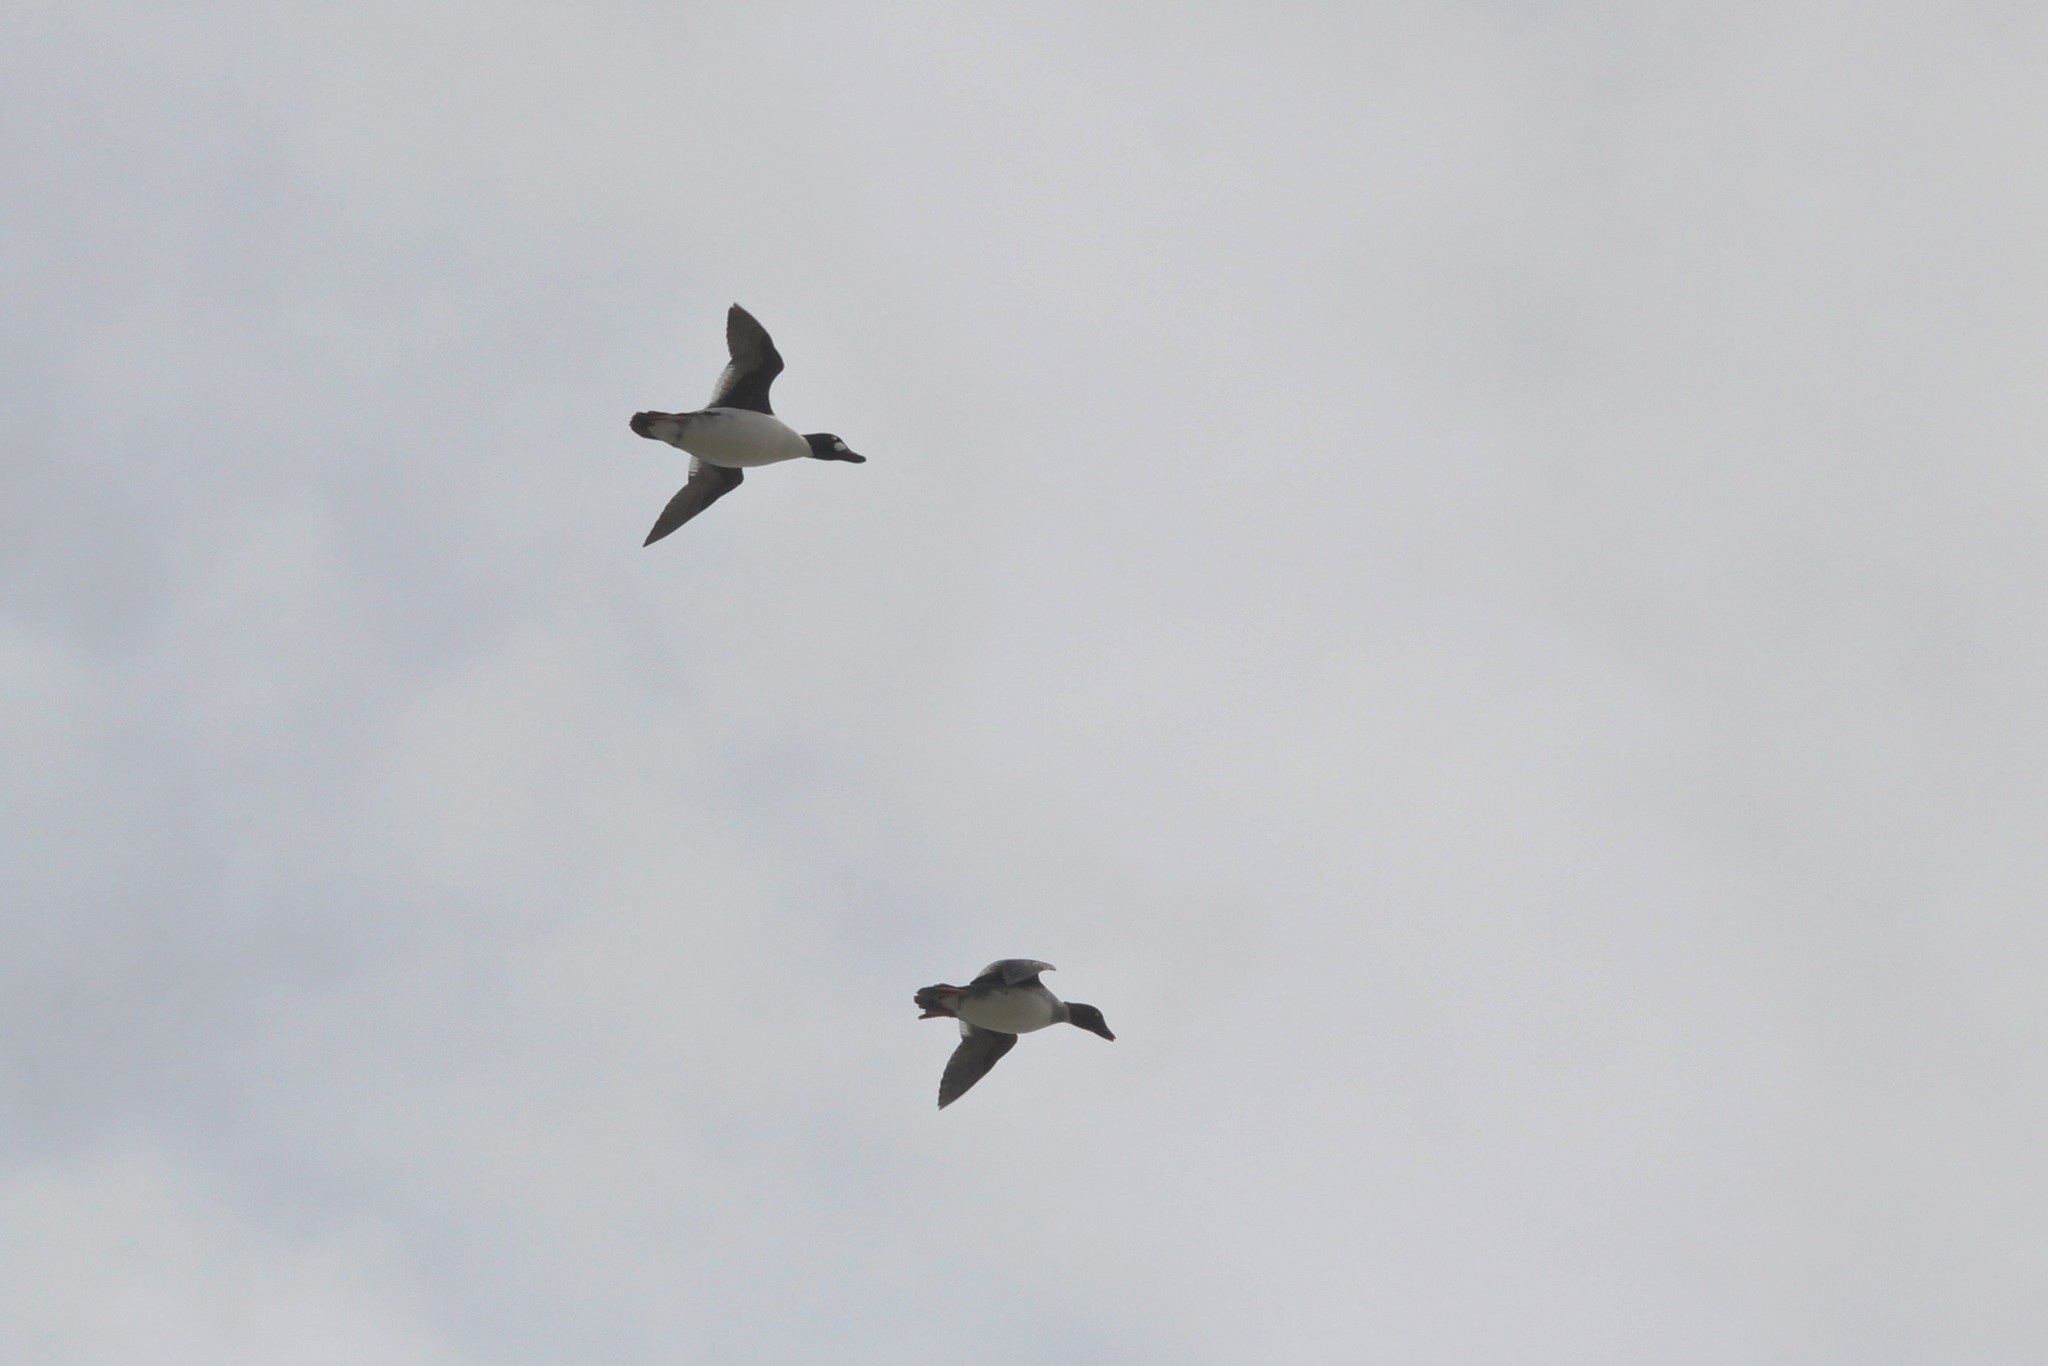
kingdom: Animalia
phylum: Chordata
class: Aves
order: Anseriformes
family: Anatidae
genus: Bucephala
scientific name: Bucephala clangula
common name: Common goldeneye
